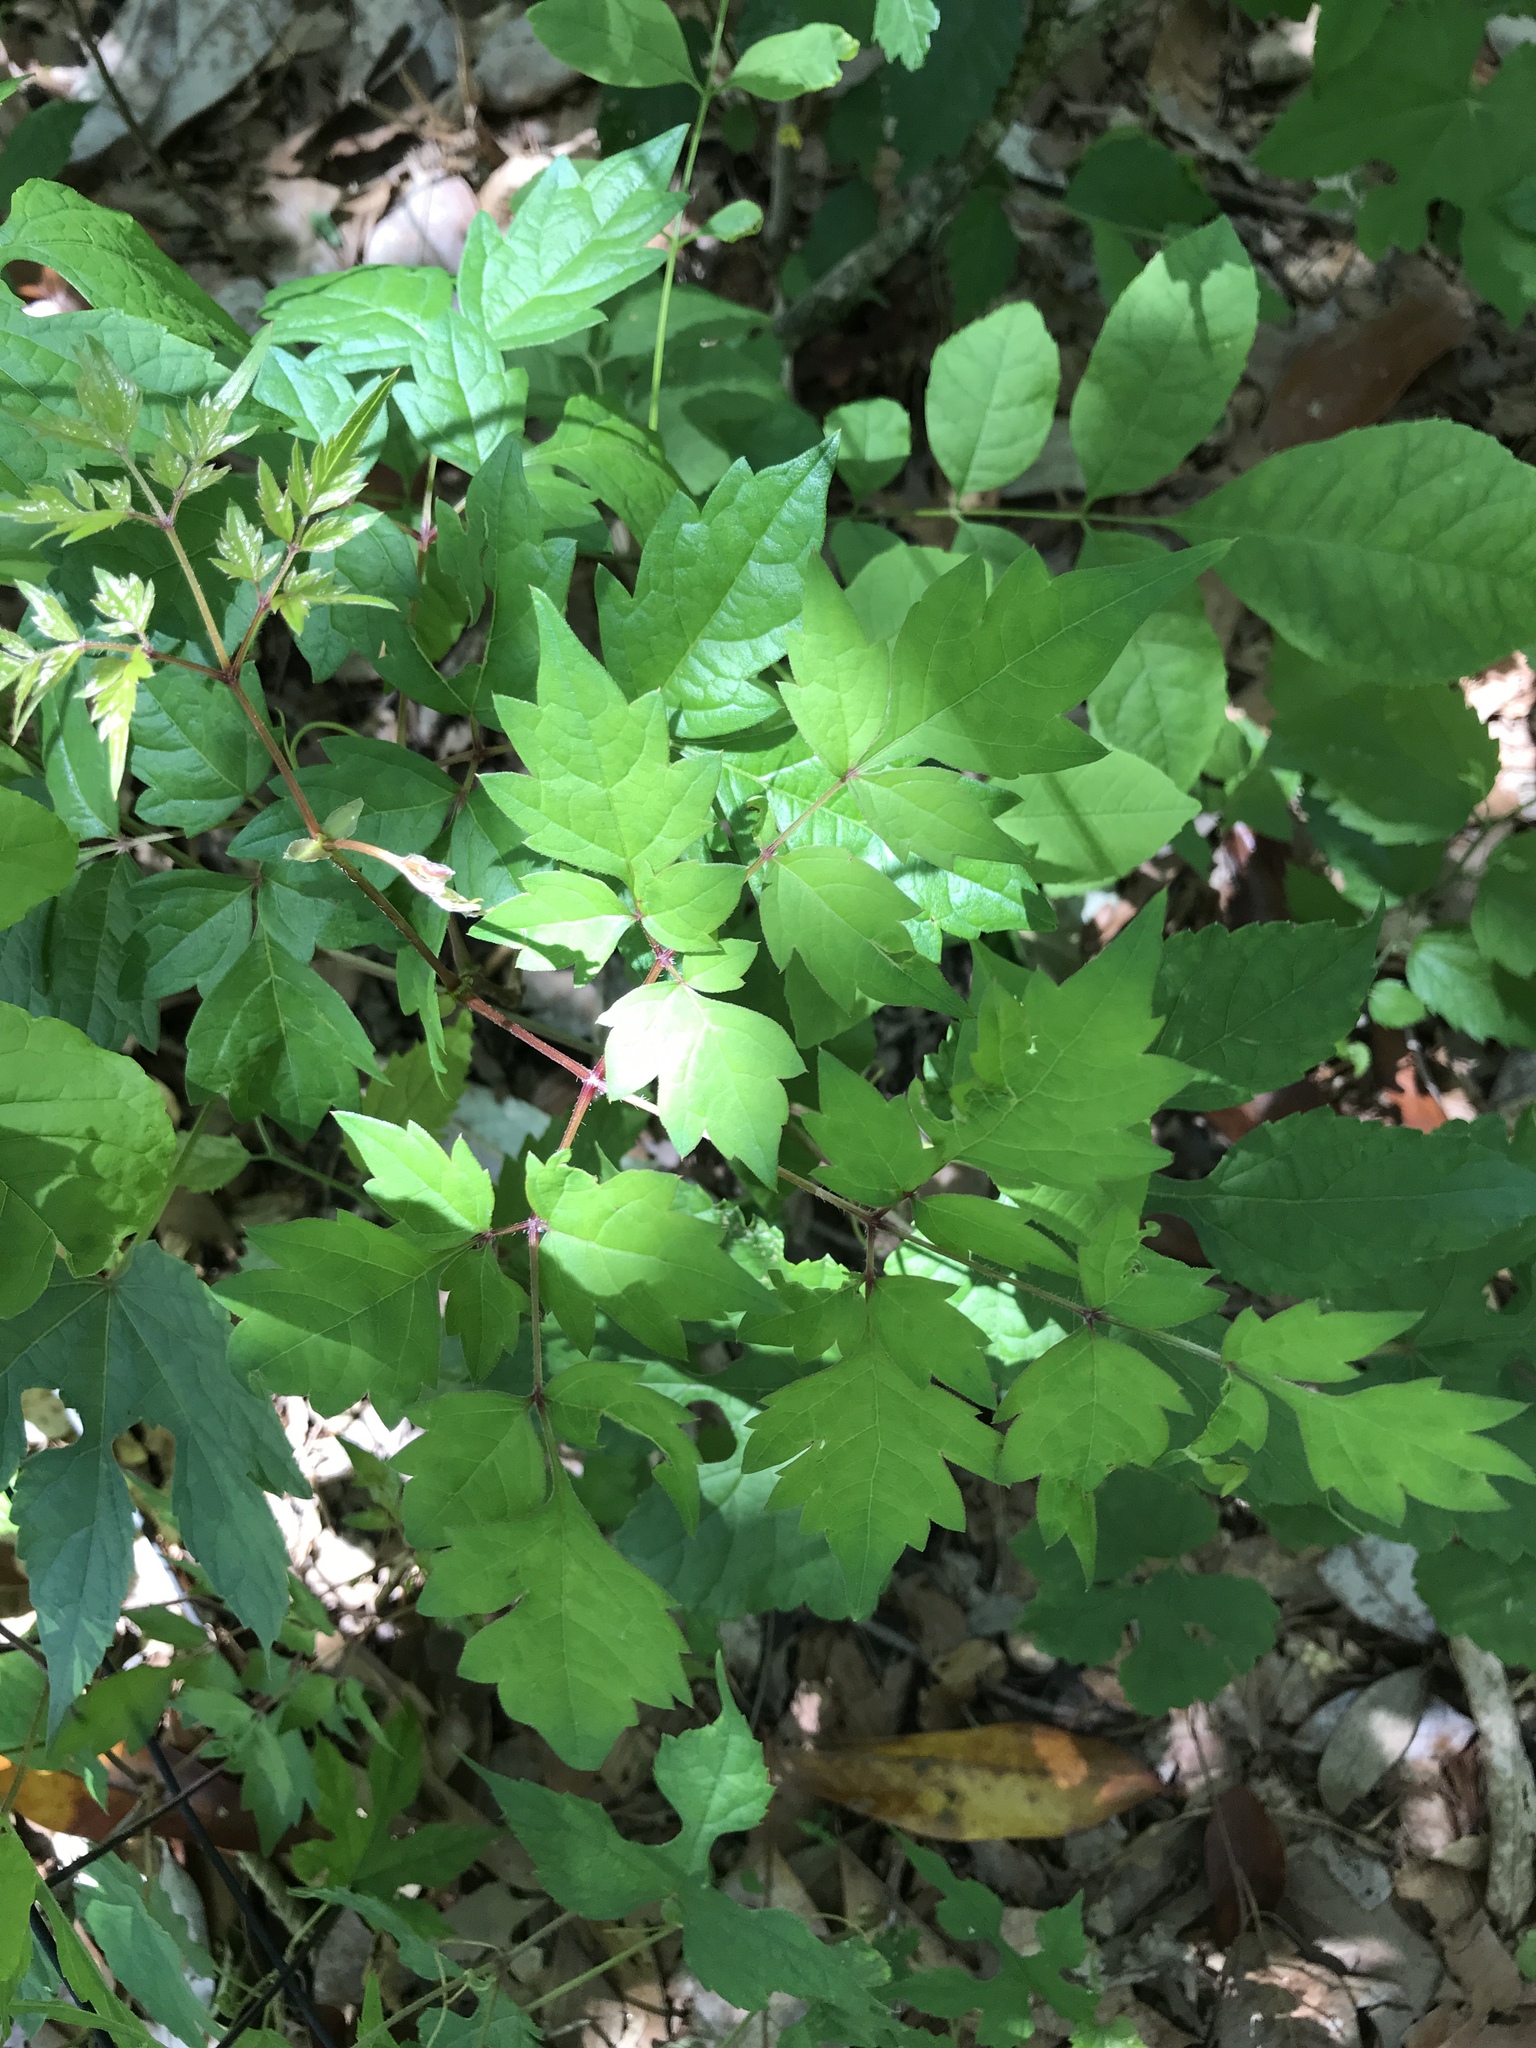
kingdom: Plantae
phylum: Tracheophyta
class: Magnoliopsida
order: Vitales
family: Vitaceae
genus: Nekemias
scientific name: Nekemias arborea
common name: Peppervine
